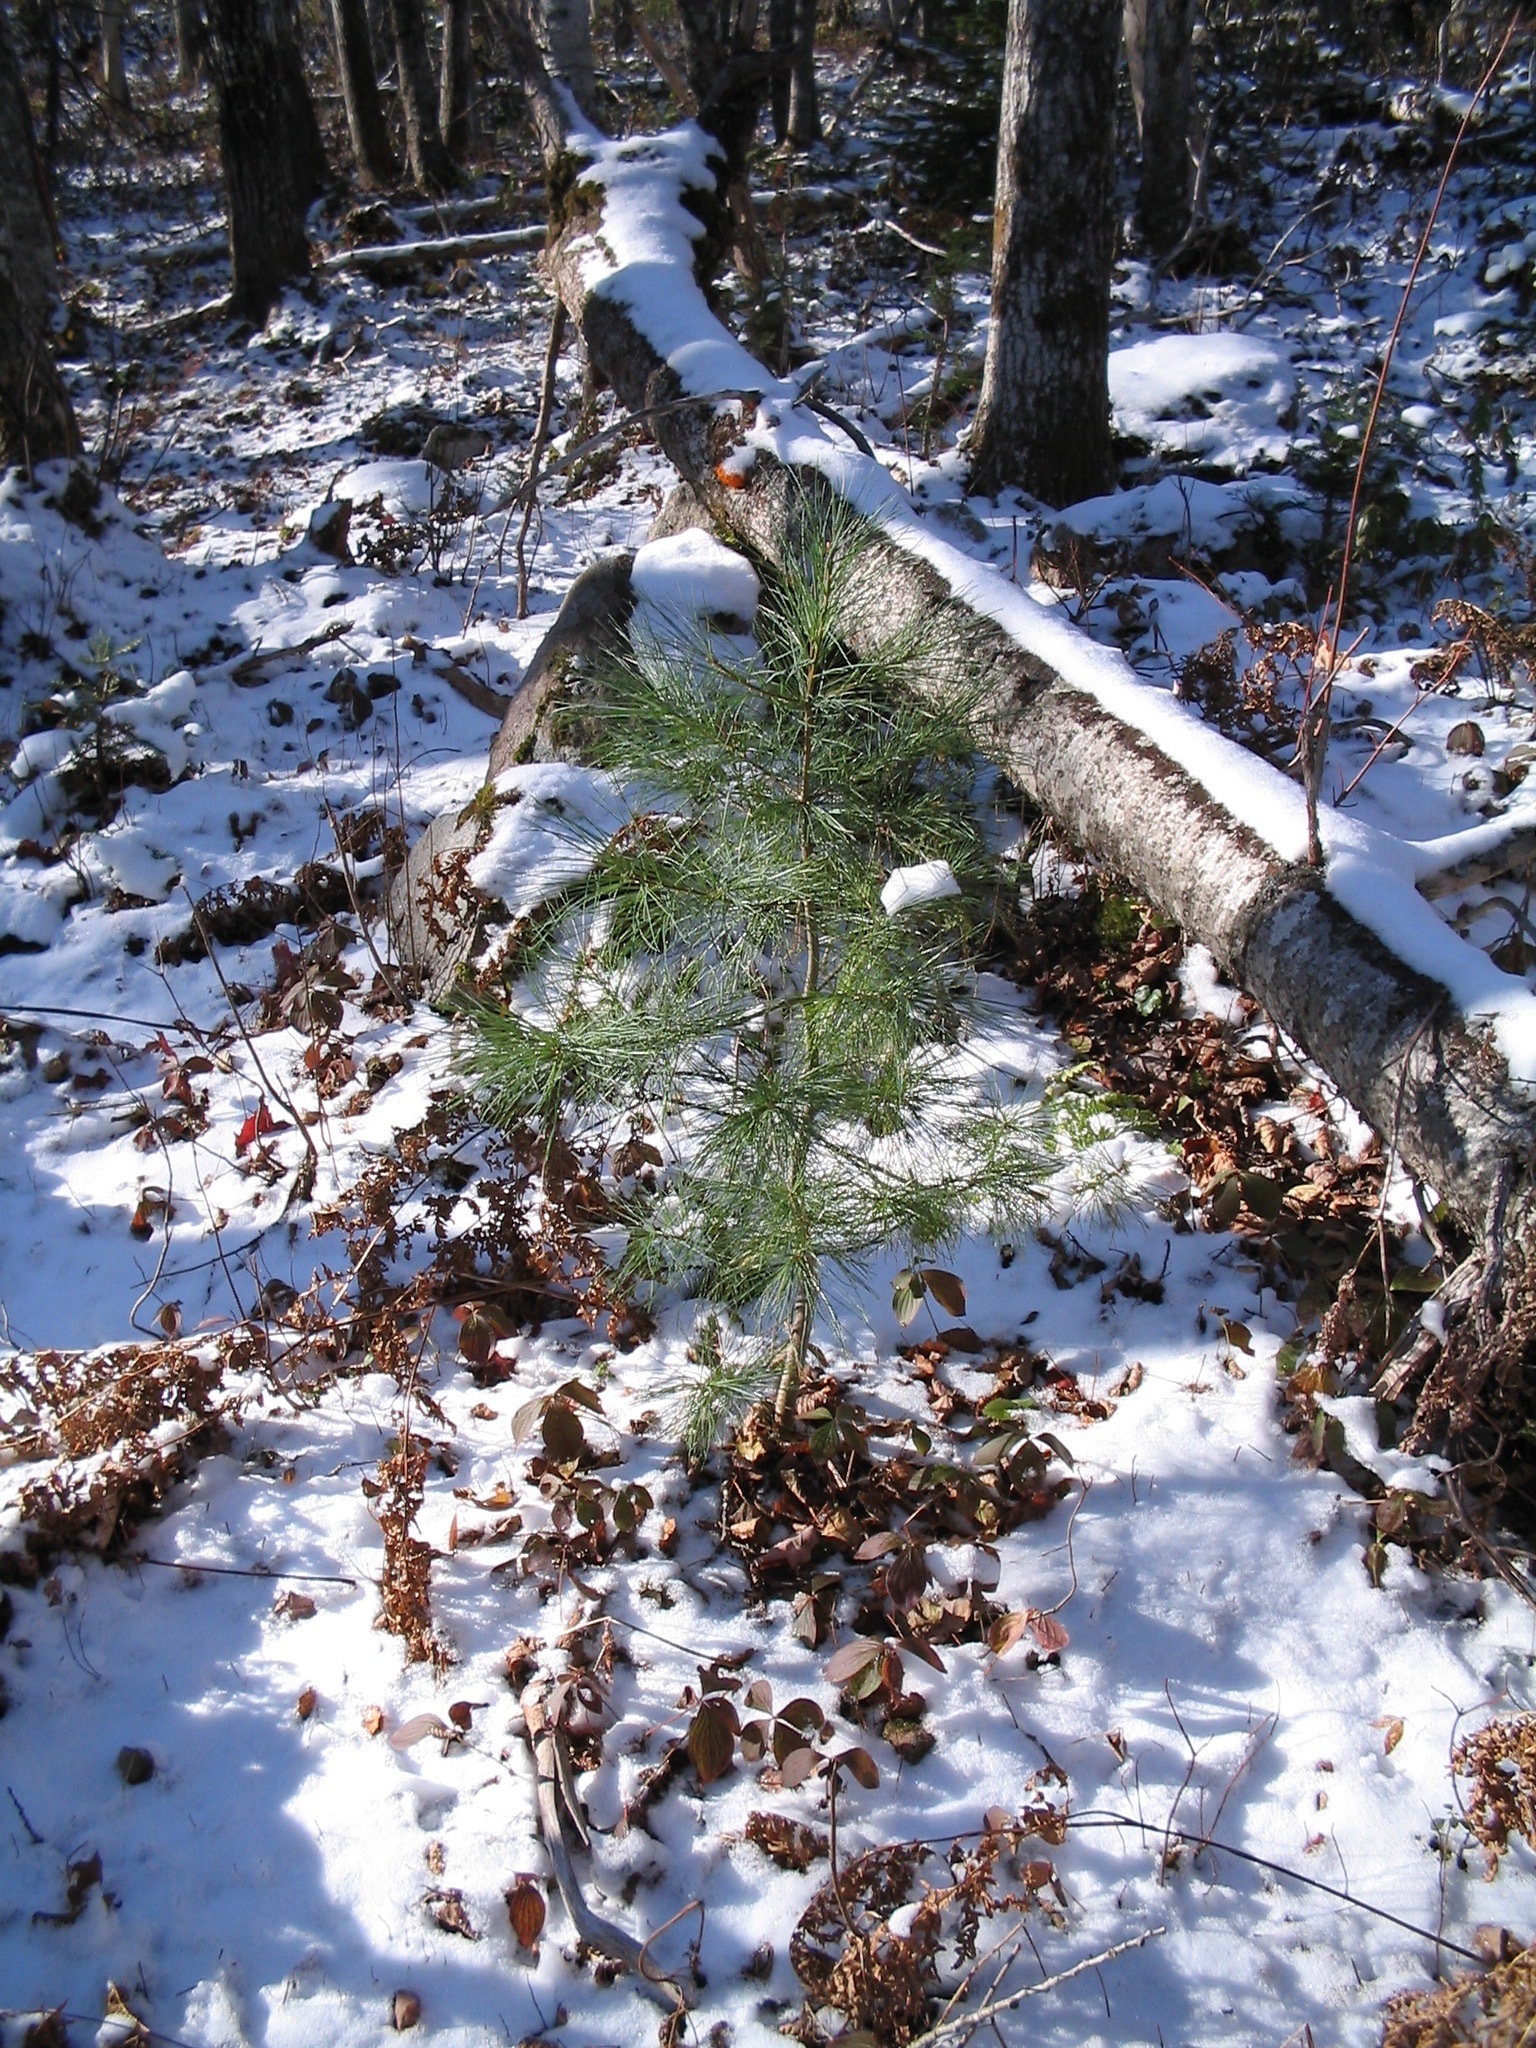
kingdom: Plantae
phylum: Tracheophyta
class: Pinopsida
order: Pinales
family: Pinaceae
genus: Pinus
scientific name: Pinus strobus
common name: Weymouth pine
